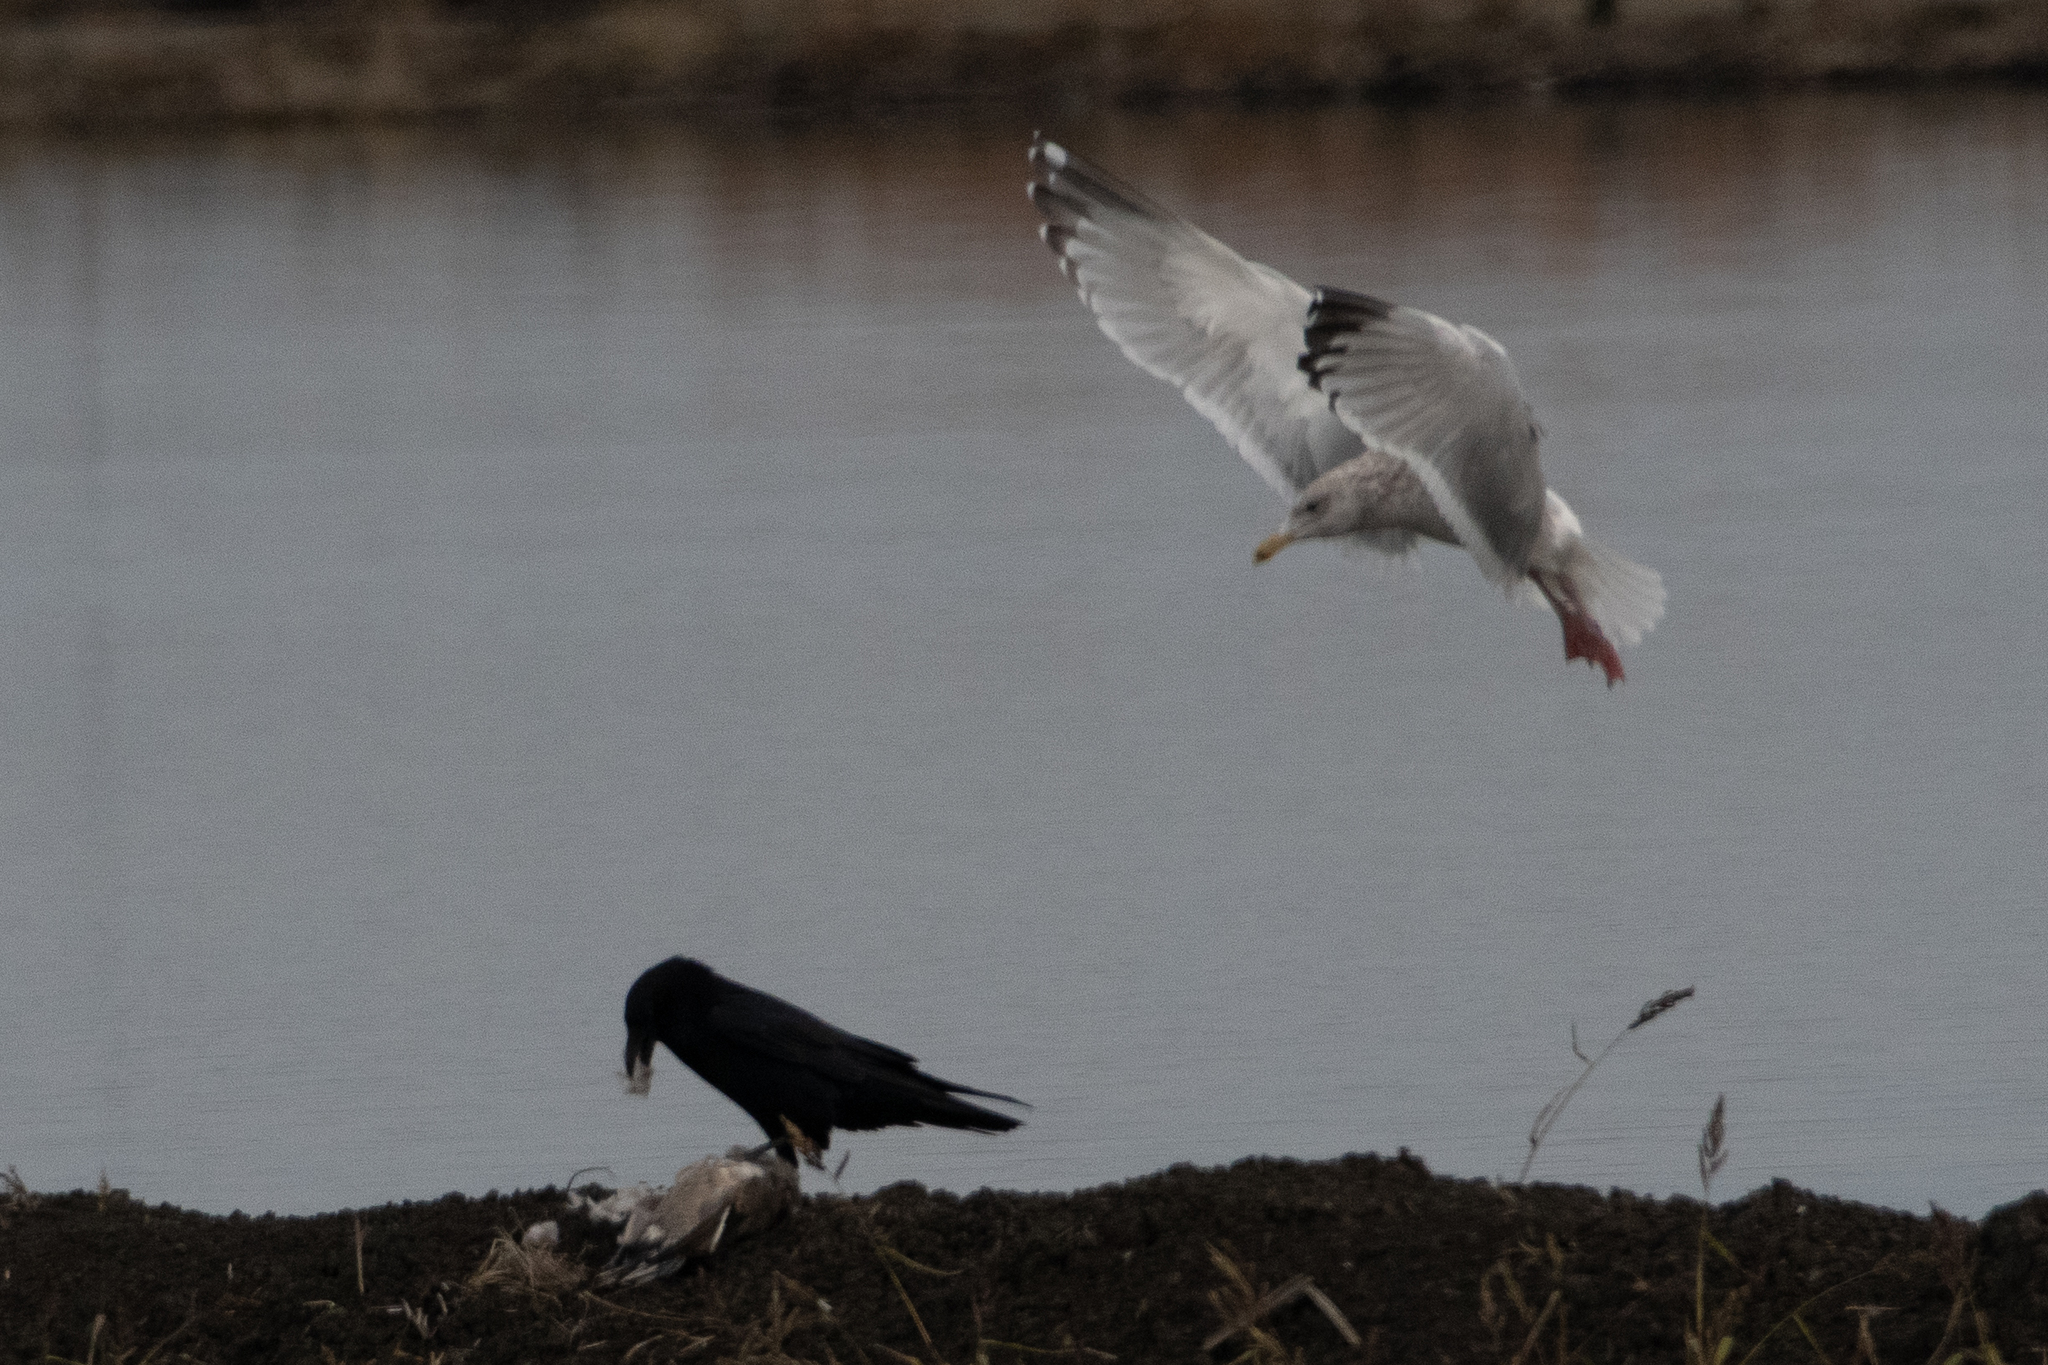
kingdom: Animalia
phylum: Chordata
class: Aves
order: Charadriiformes
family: Laridae
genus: Larus
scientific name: Larus argentatus
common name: Herring gull
